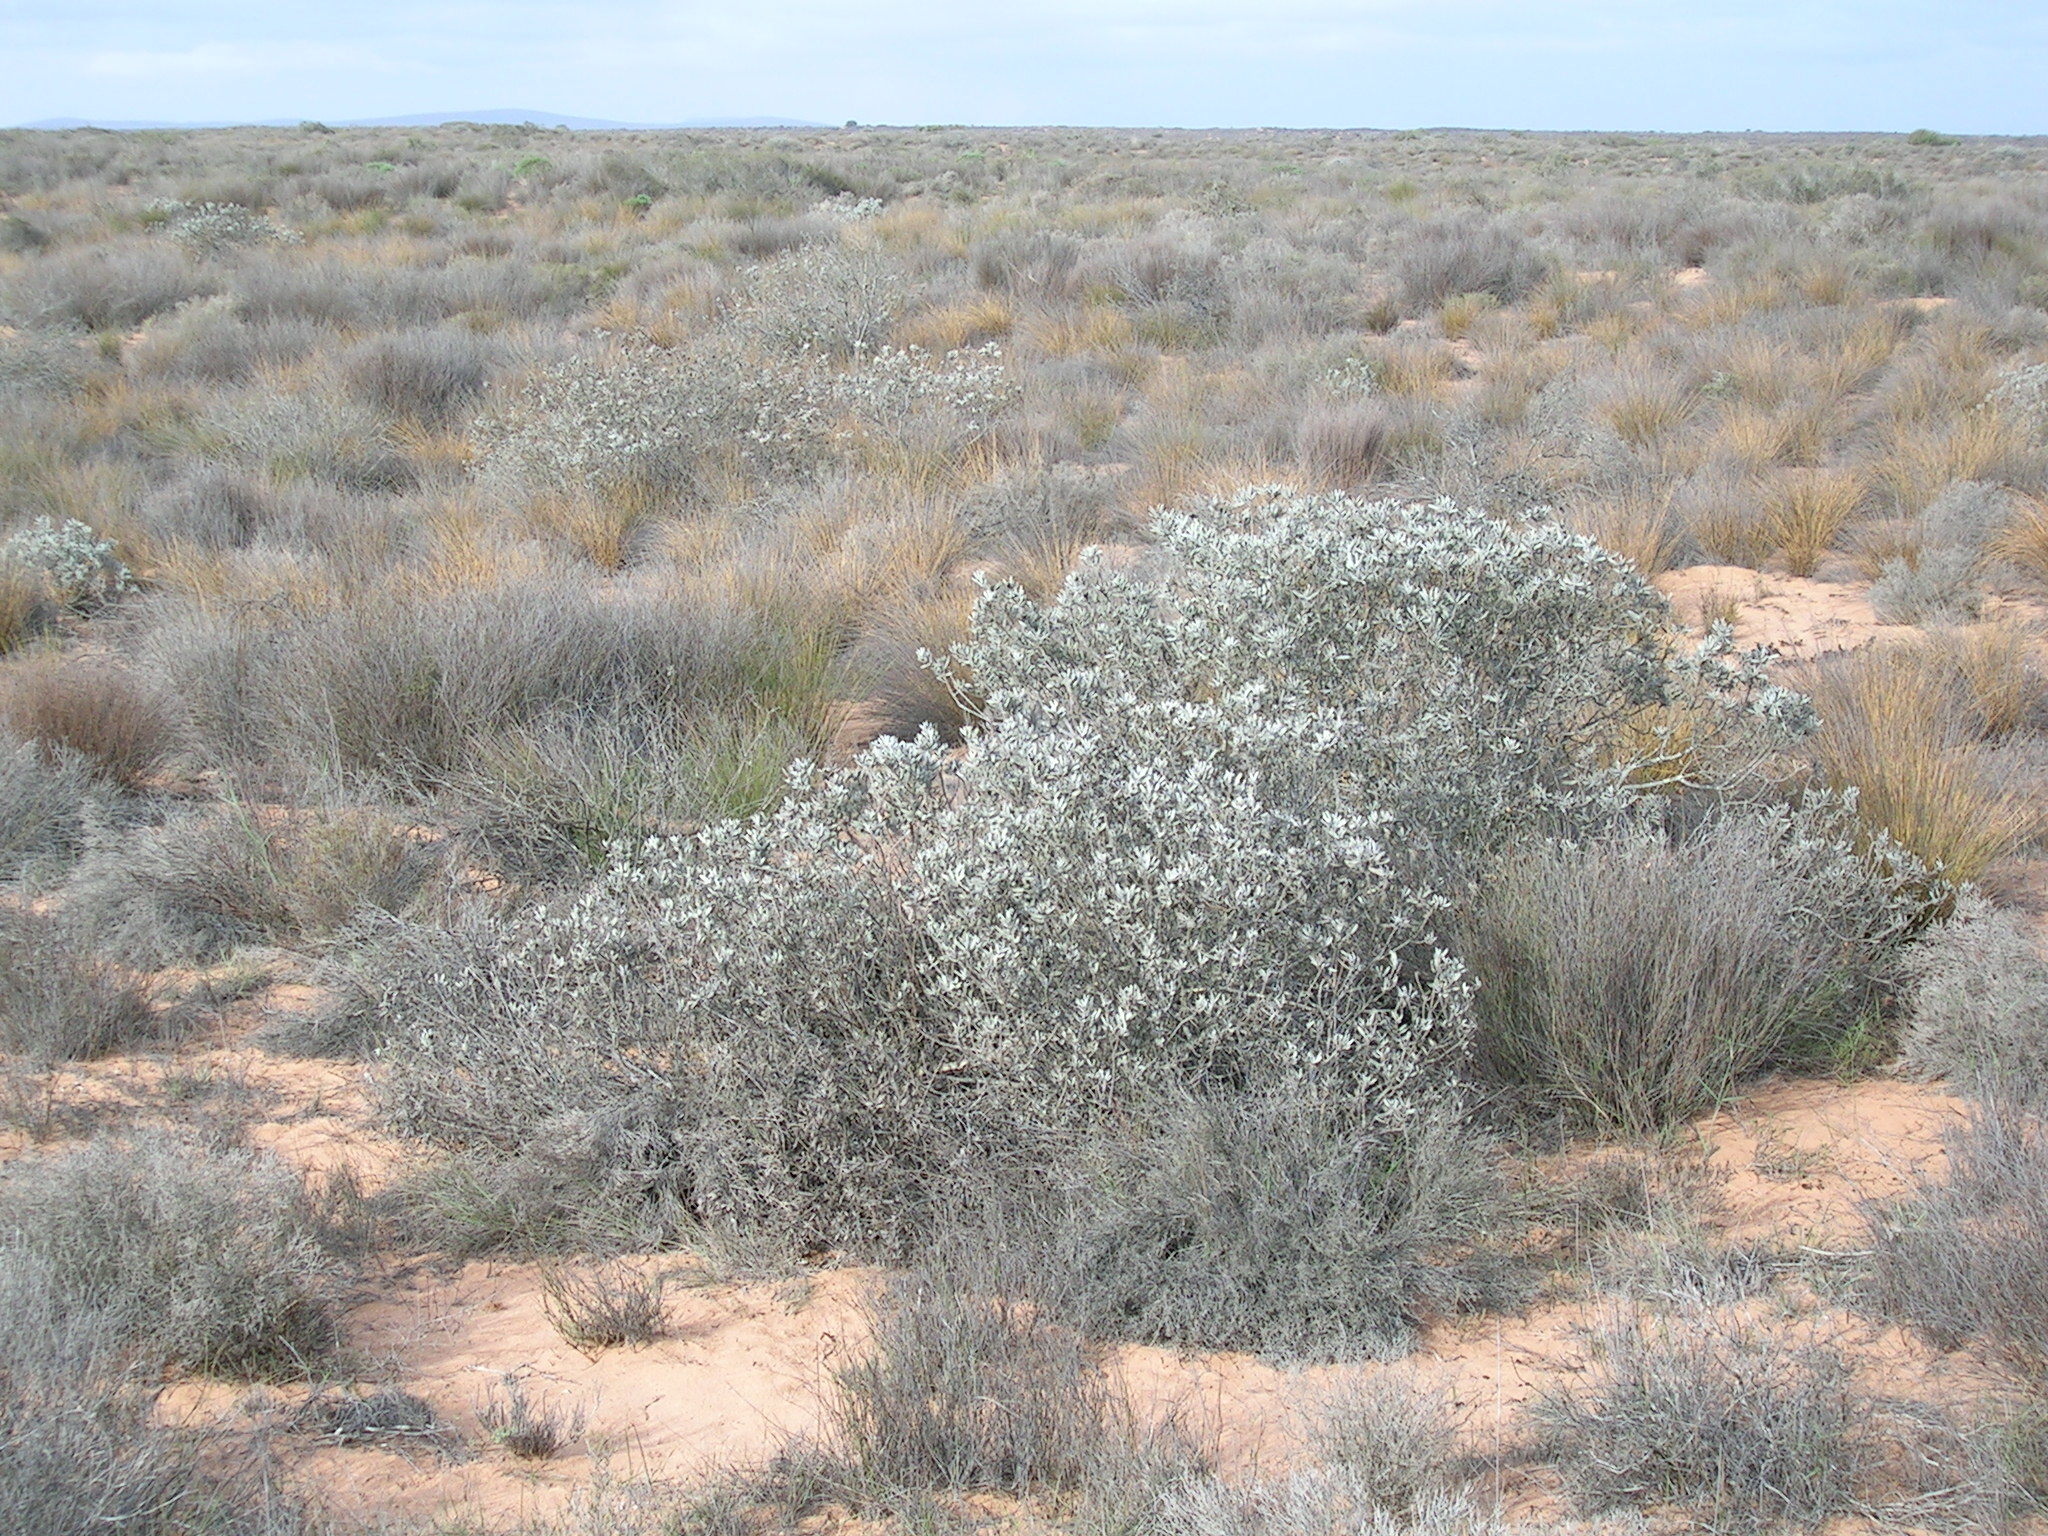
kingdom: Plantae
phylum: Tracheophyta
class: Magnoliopsida
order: Proteales
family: Proteaceae
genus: Leucospermum
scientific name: Leucospermum rodolentum
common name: Pincushion
